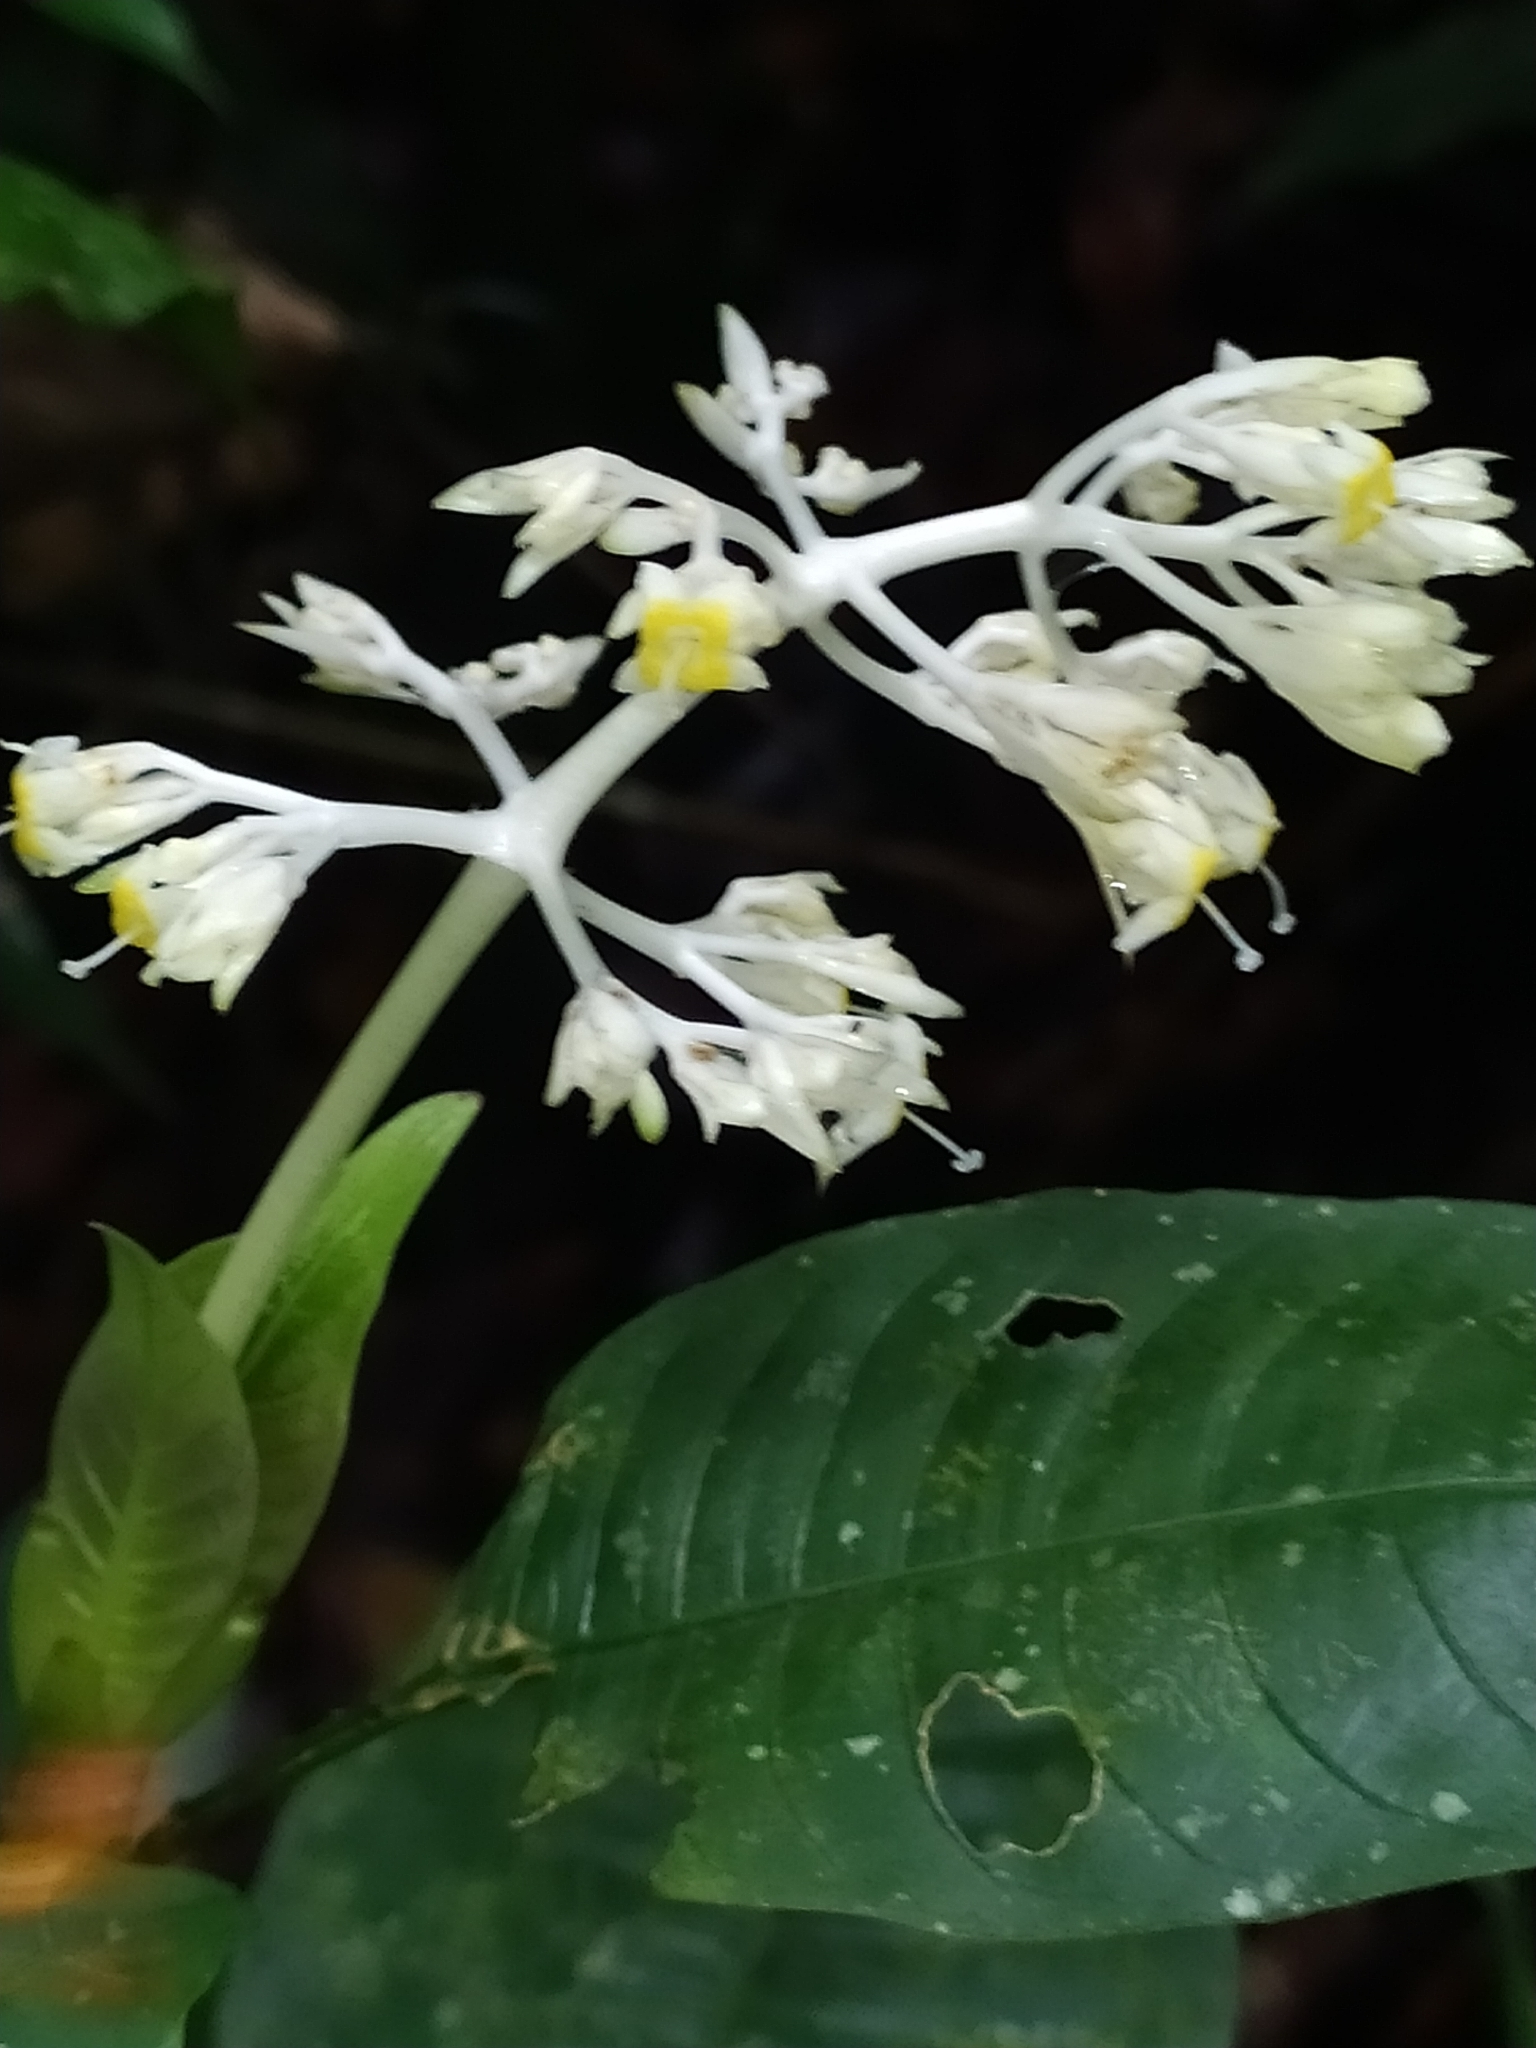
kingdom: Plantae
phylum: Tracheophyta
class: Magnoliopsida
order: Gentianales
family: Rubiaceae
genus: Palicourea
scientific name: Palicourea violacea
